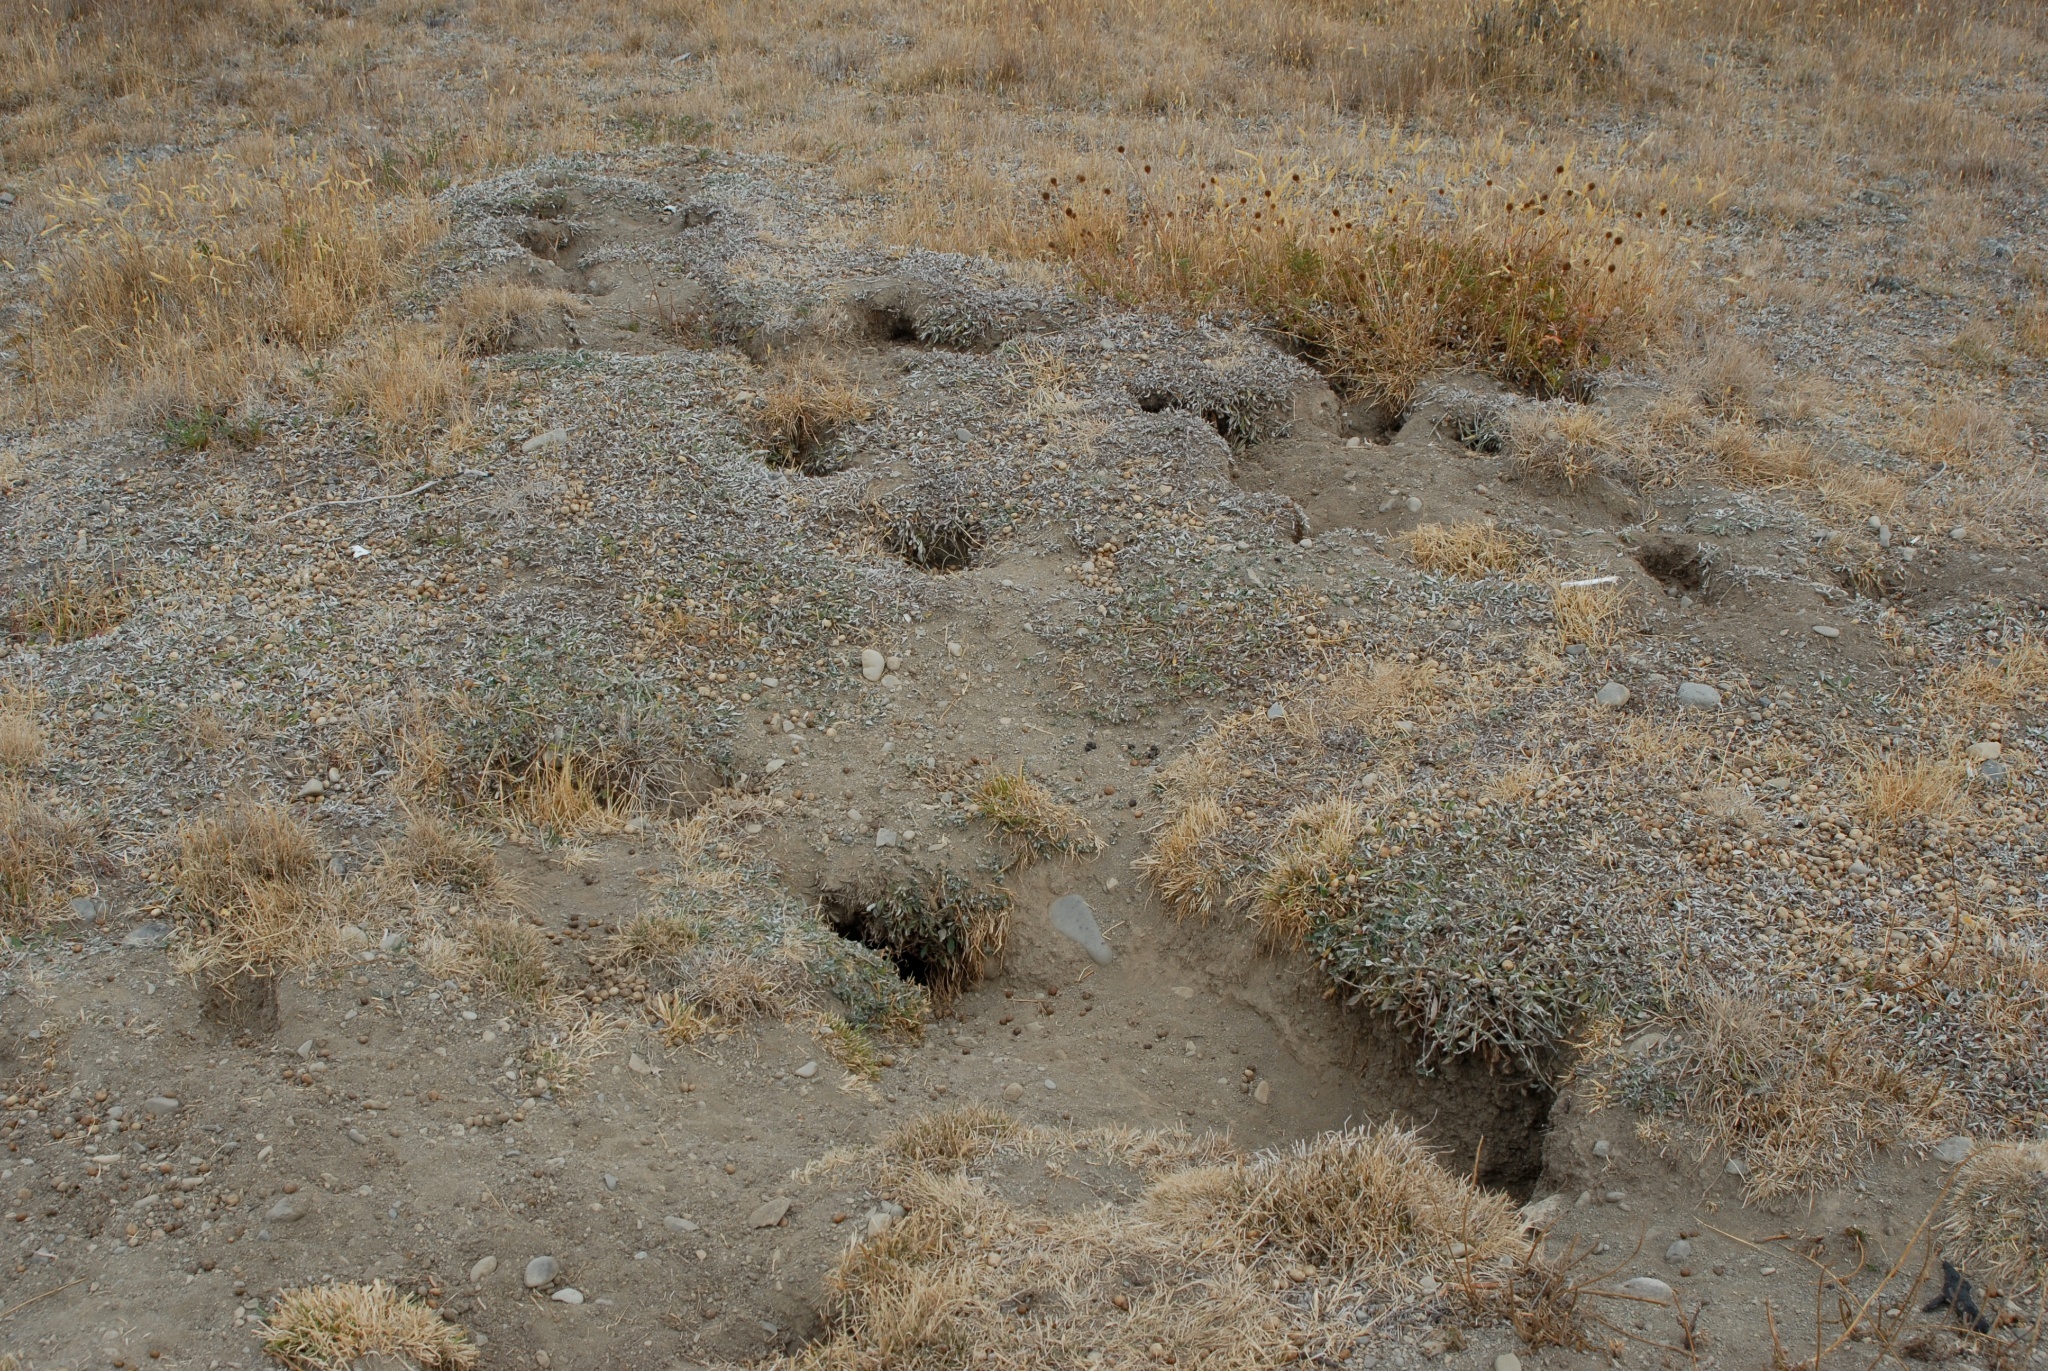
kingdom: Animalia
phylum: Chordata
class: Mammalia
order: Lagomorpha
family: Leporidae
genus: Oryctolagus
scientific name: Oryctolagus cuniculus
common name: European rabbit
